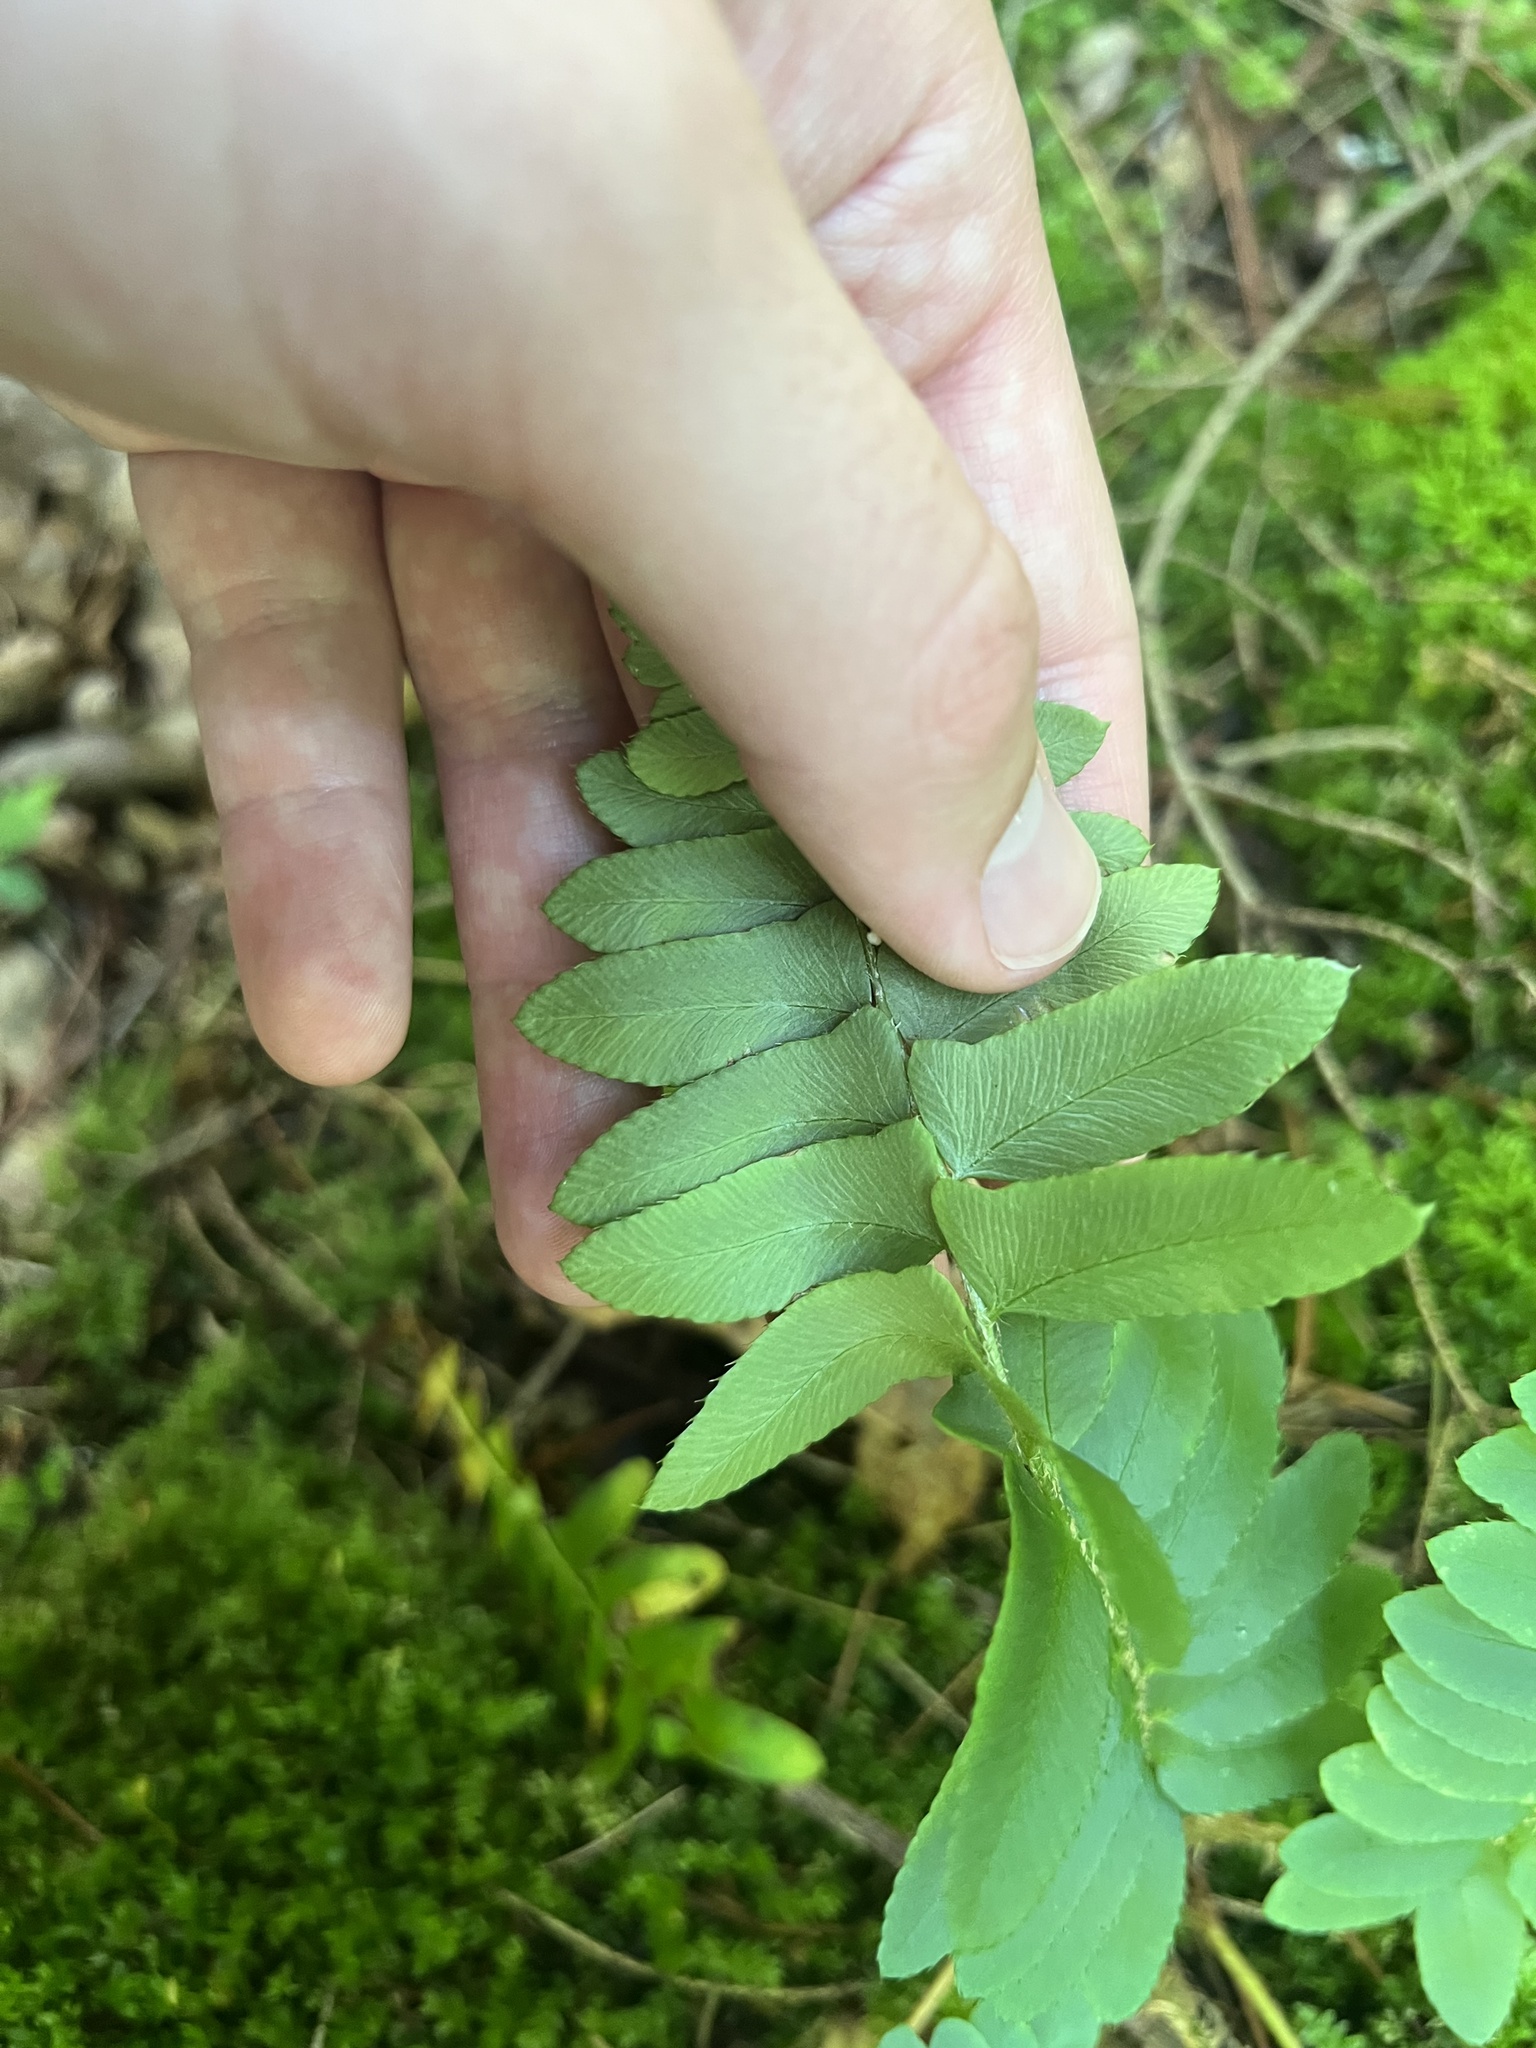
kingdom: Plantae
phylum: Tracheophyta
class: Polypodiopsida
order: Polypodiales
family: Dryopteridaceae
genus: Polystichum
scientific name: Polystichum acrostichoides
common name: Christmas fern
